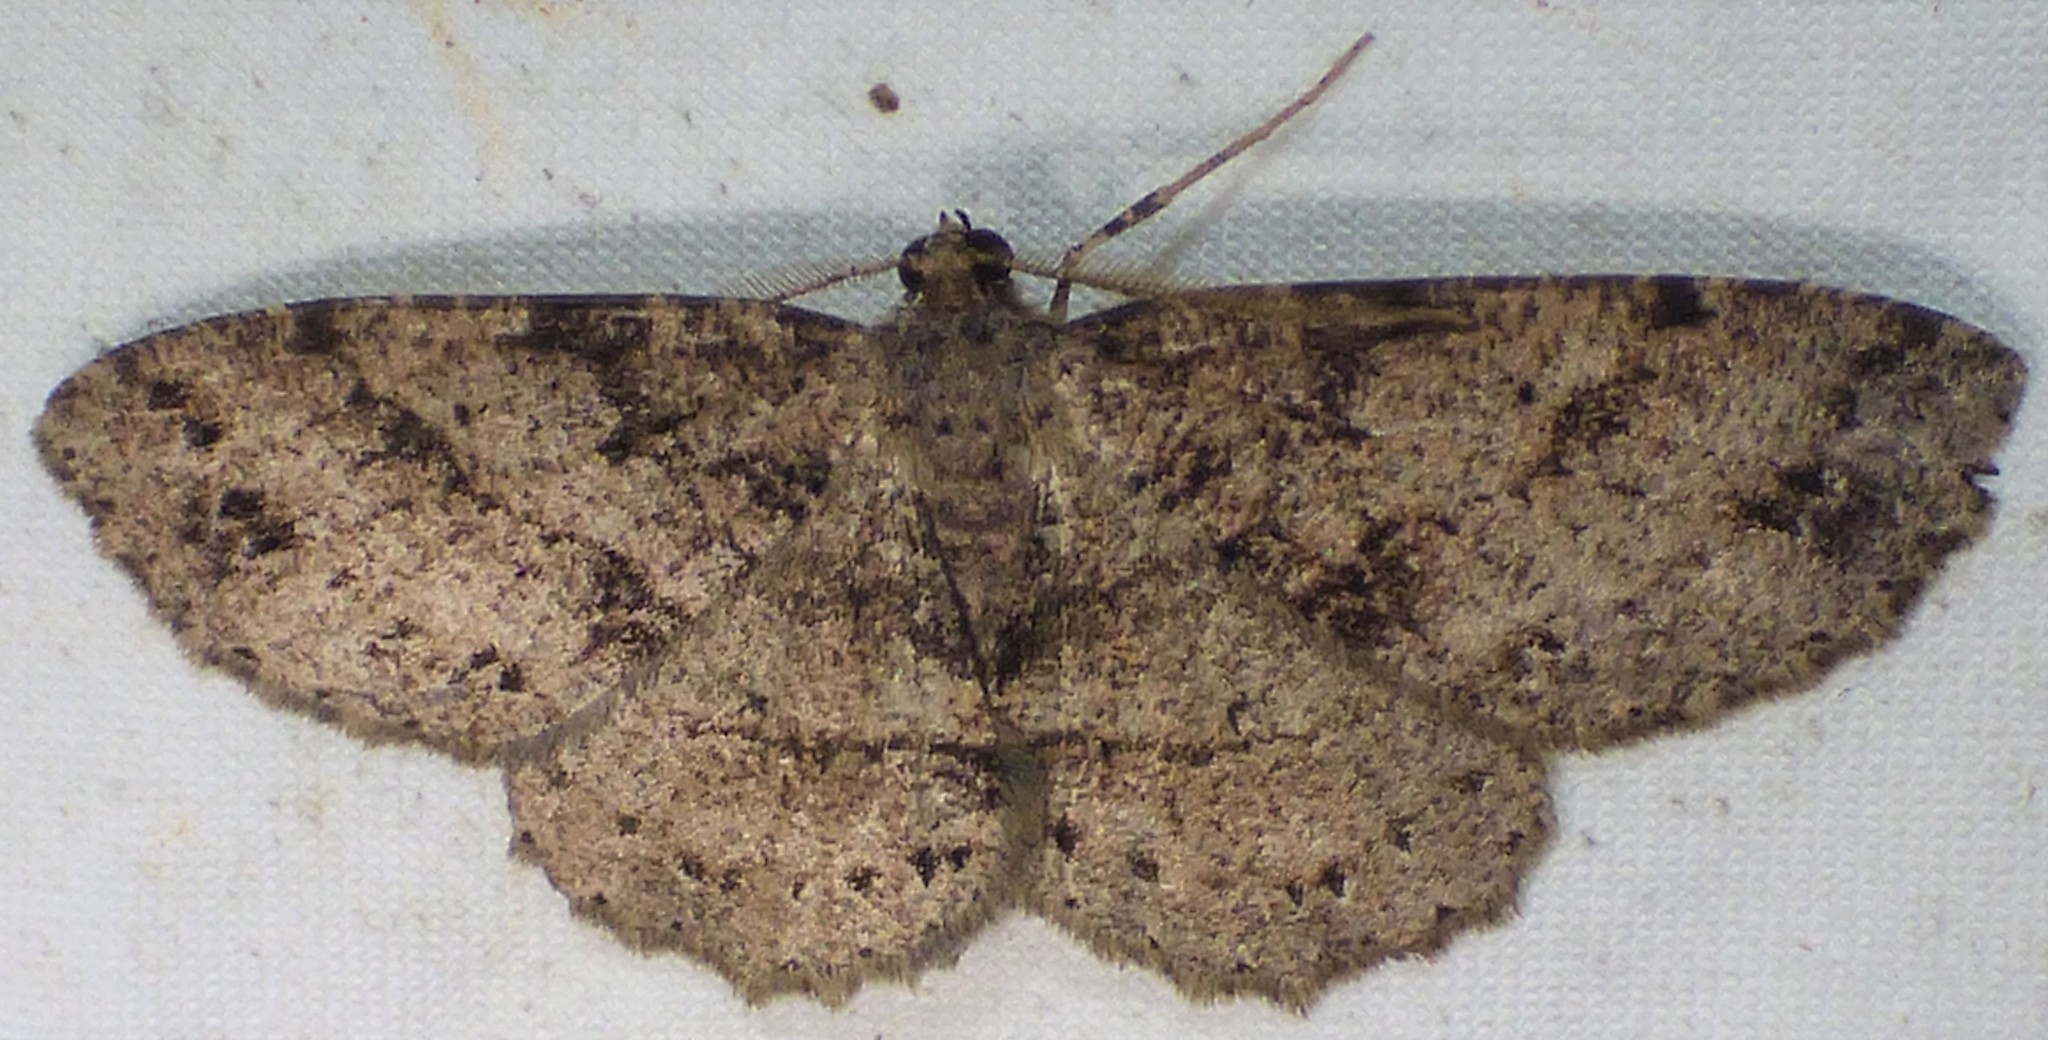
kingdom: Animalia
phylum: Arthropoda
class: Insecta
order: Lepidoptera
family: Geometridae
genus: Melanolophia
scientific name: Melanolophia canadaria
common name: Canadian melanolophia
